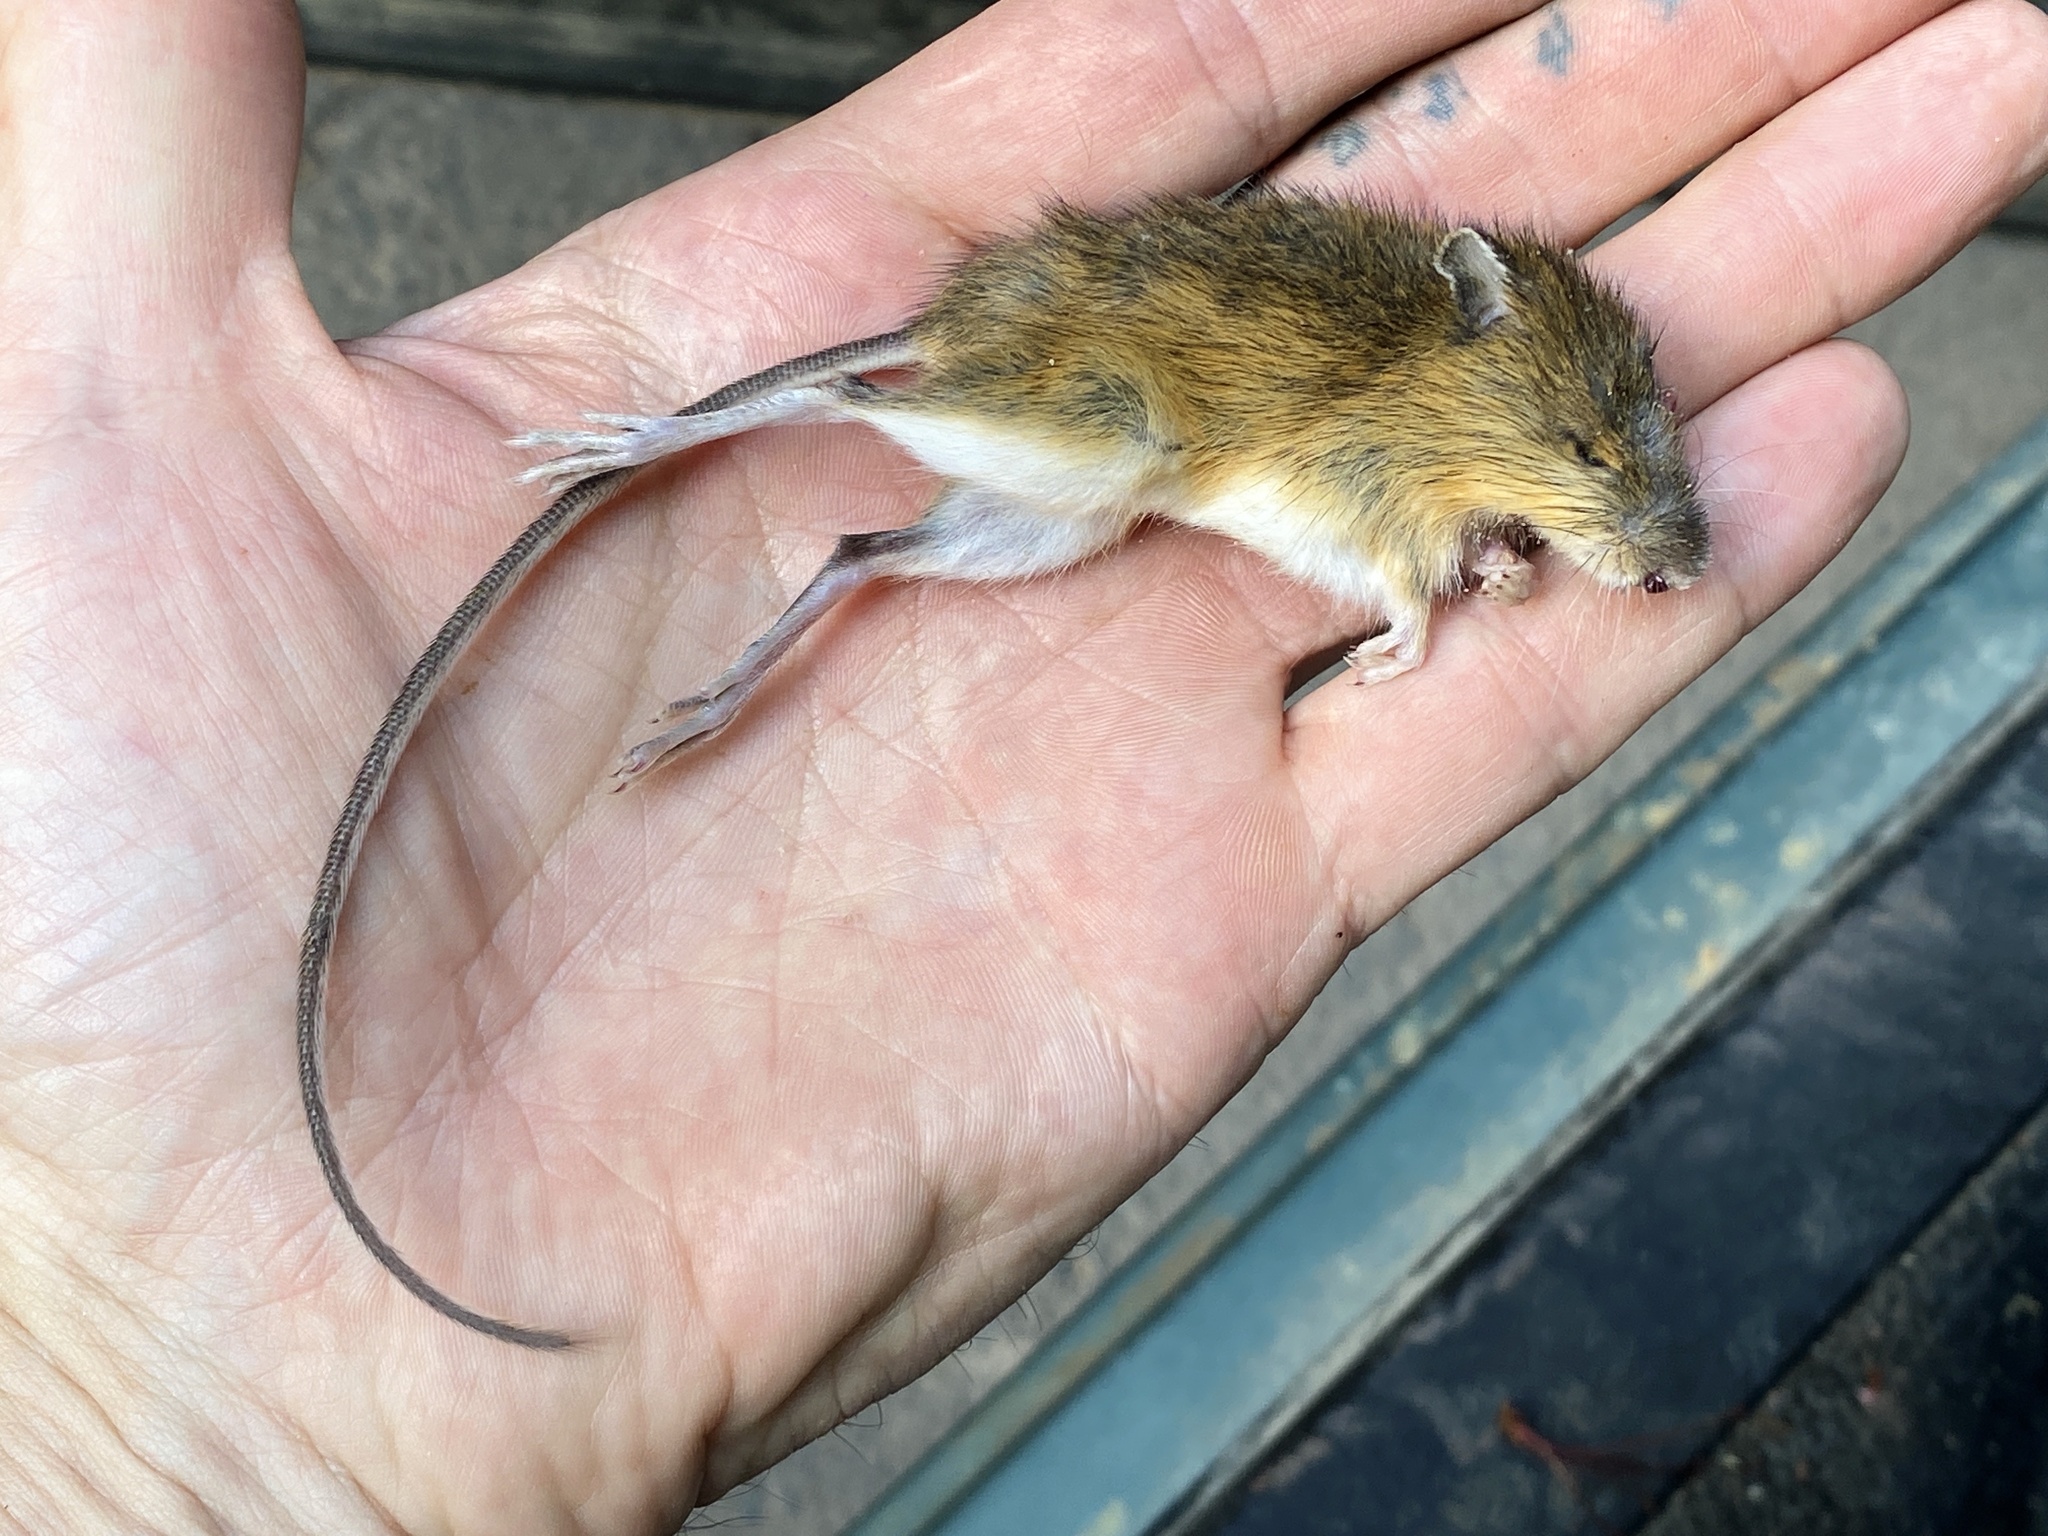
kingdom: Animalia
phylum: Chordata
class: Mammalia
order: Rodentia
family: Dipodidae
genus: Zapus
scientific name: Zapus hudsonius
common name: Meadow jumping mouse
